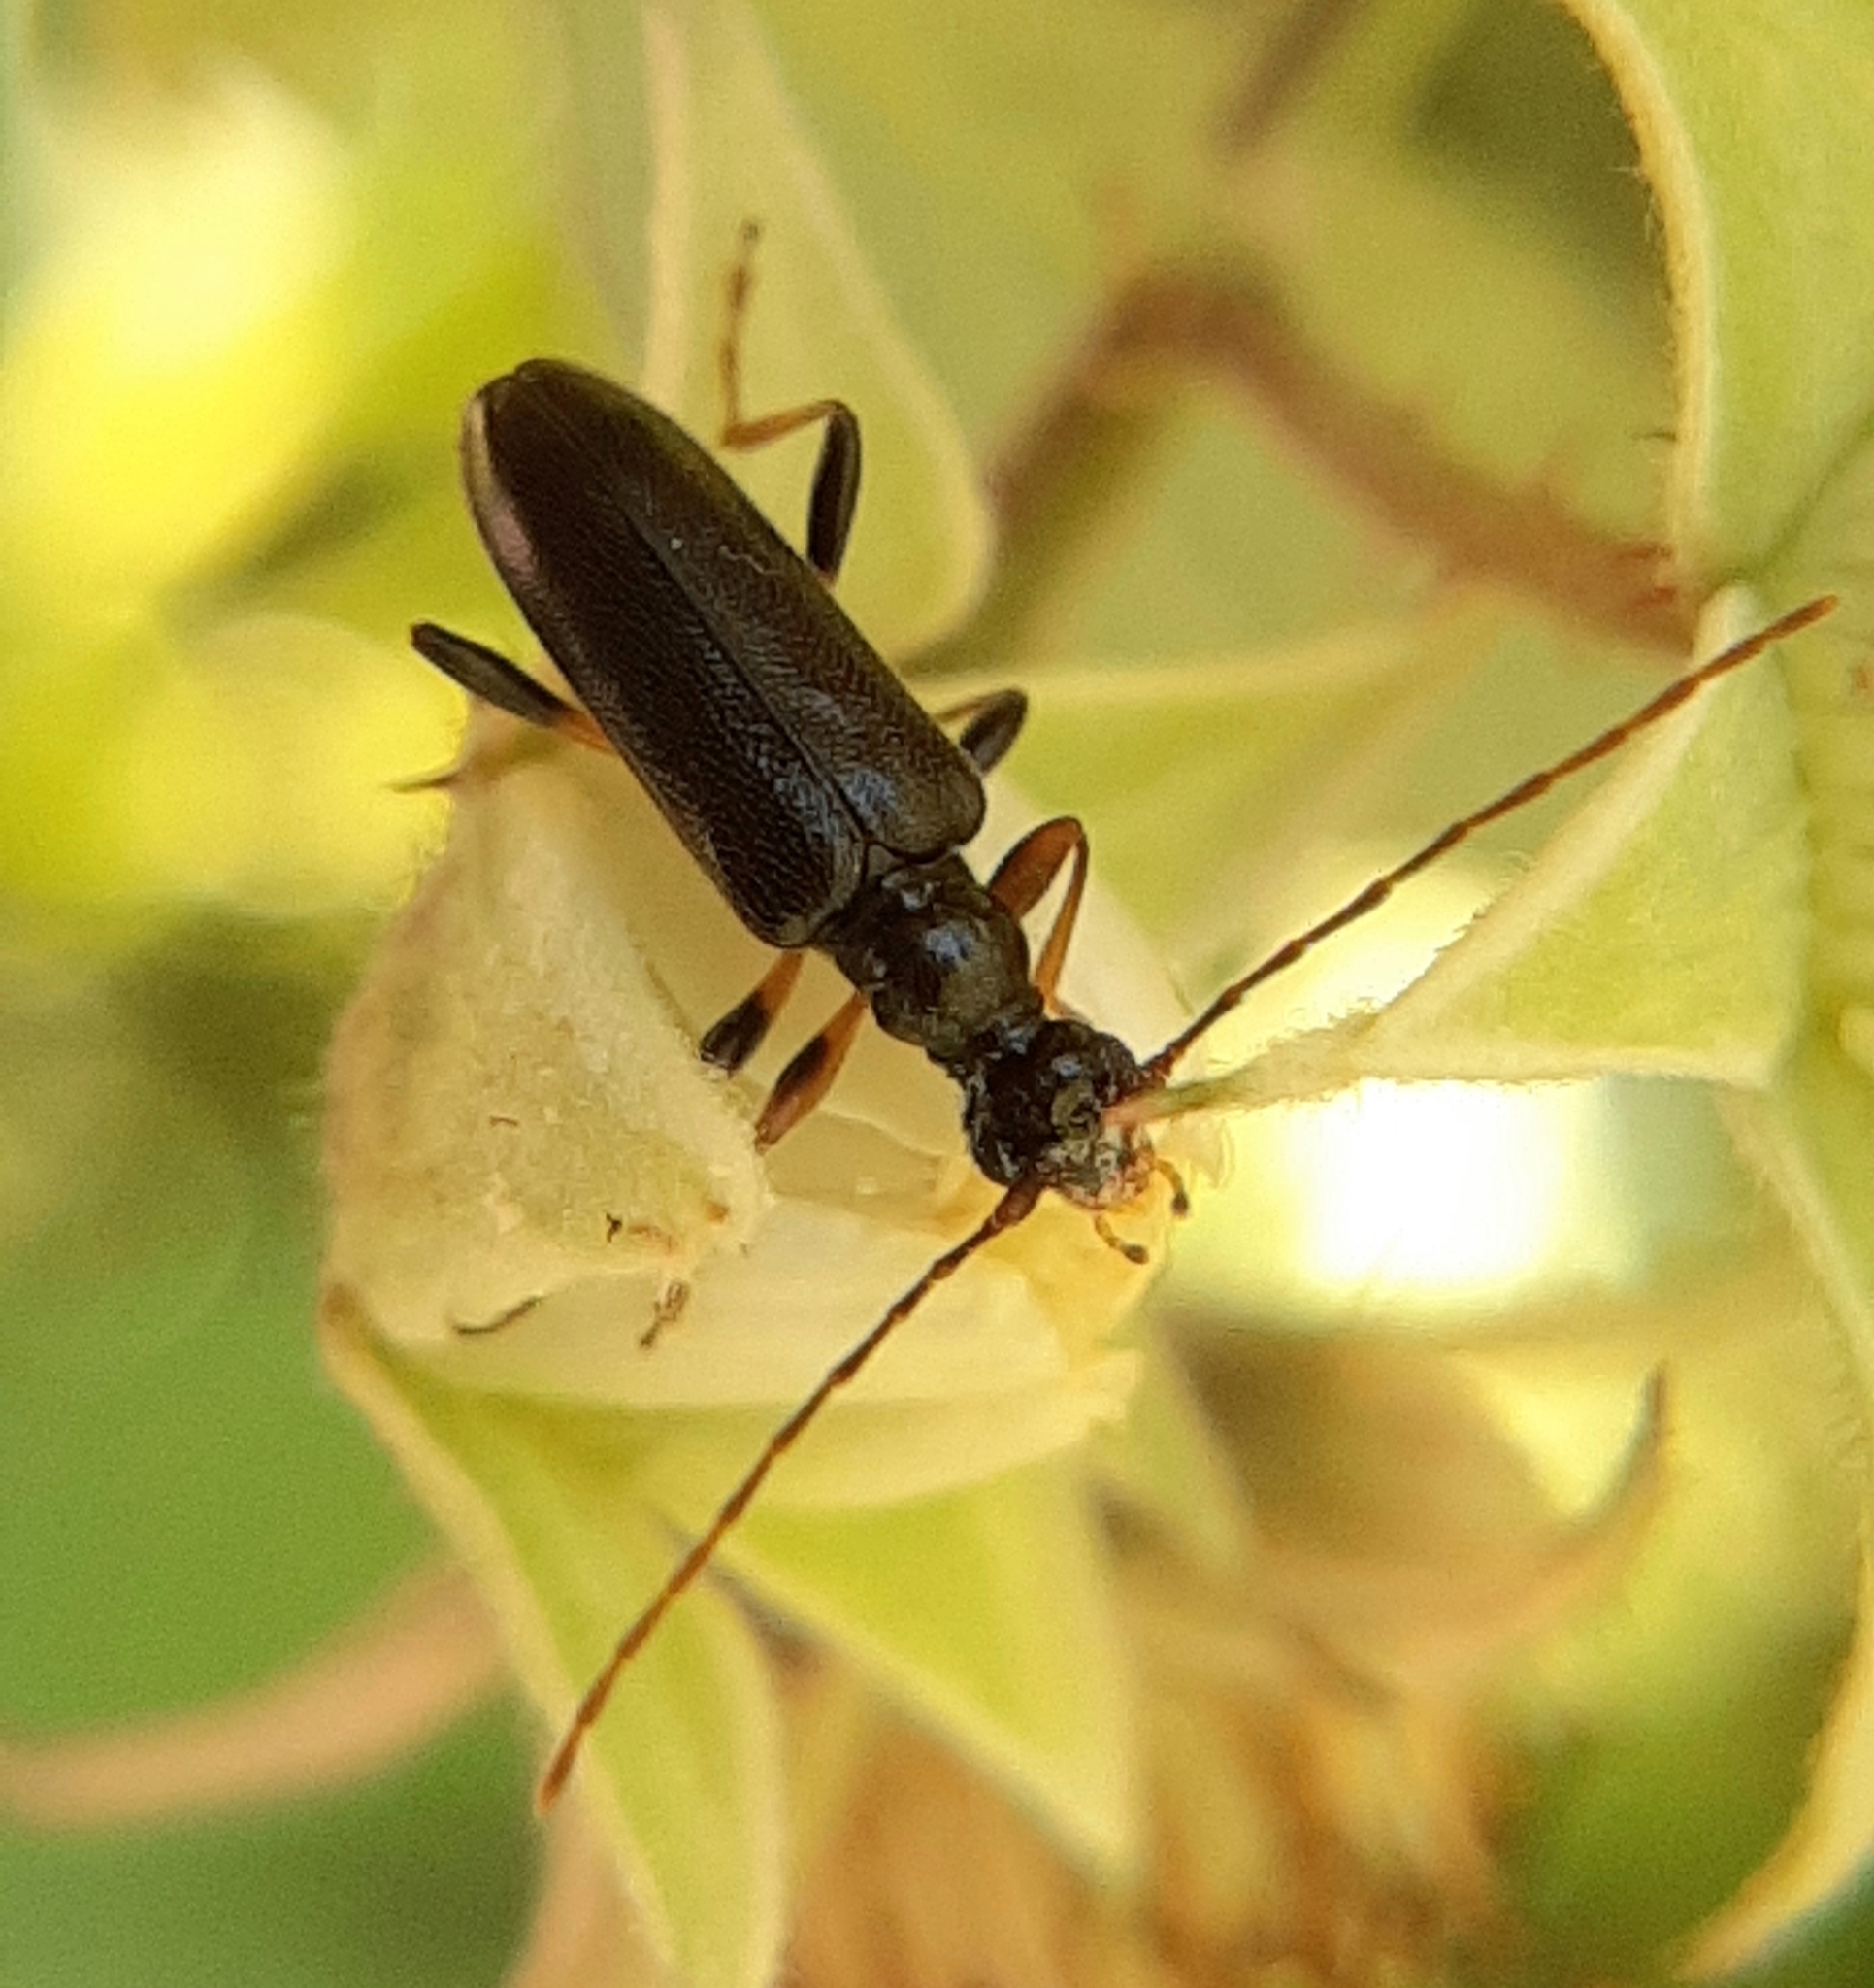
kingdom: Animalia
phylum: Arthropoda
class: Insecta
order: Coleoptera
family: Cerambycidae
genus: Pidonia
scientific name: Pidonia ruficollis
